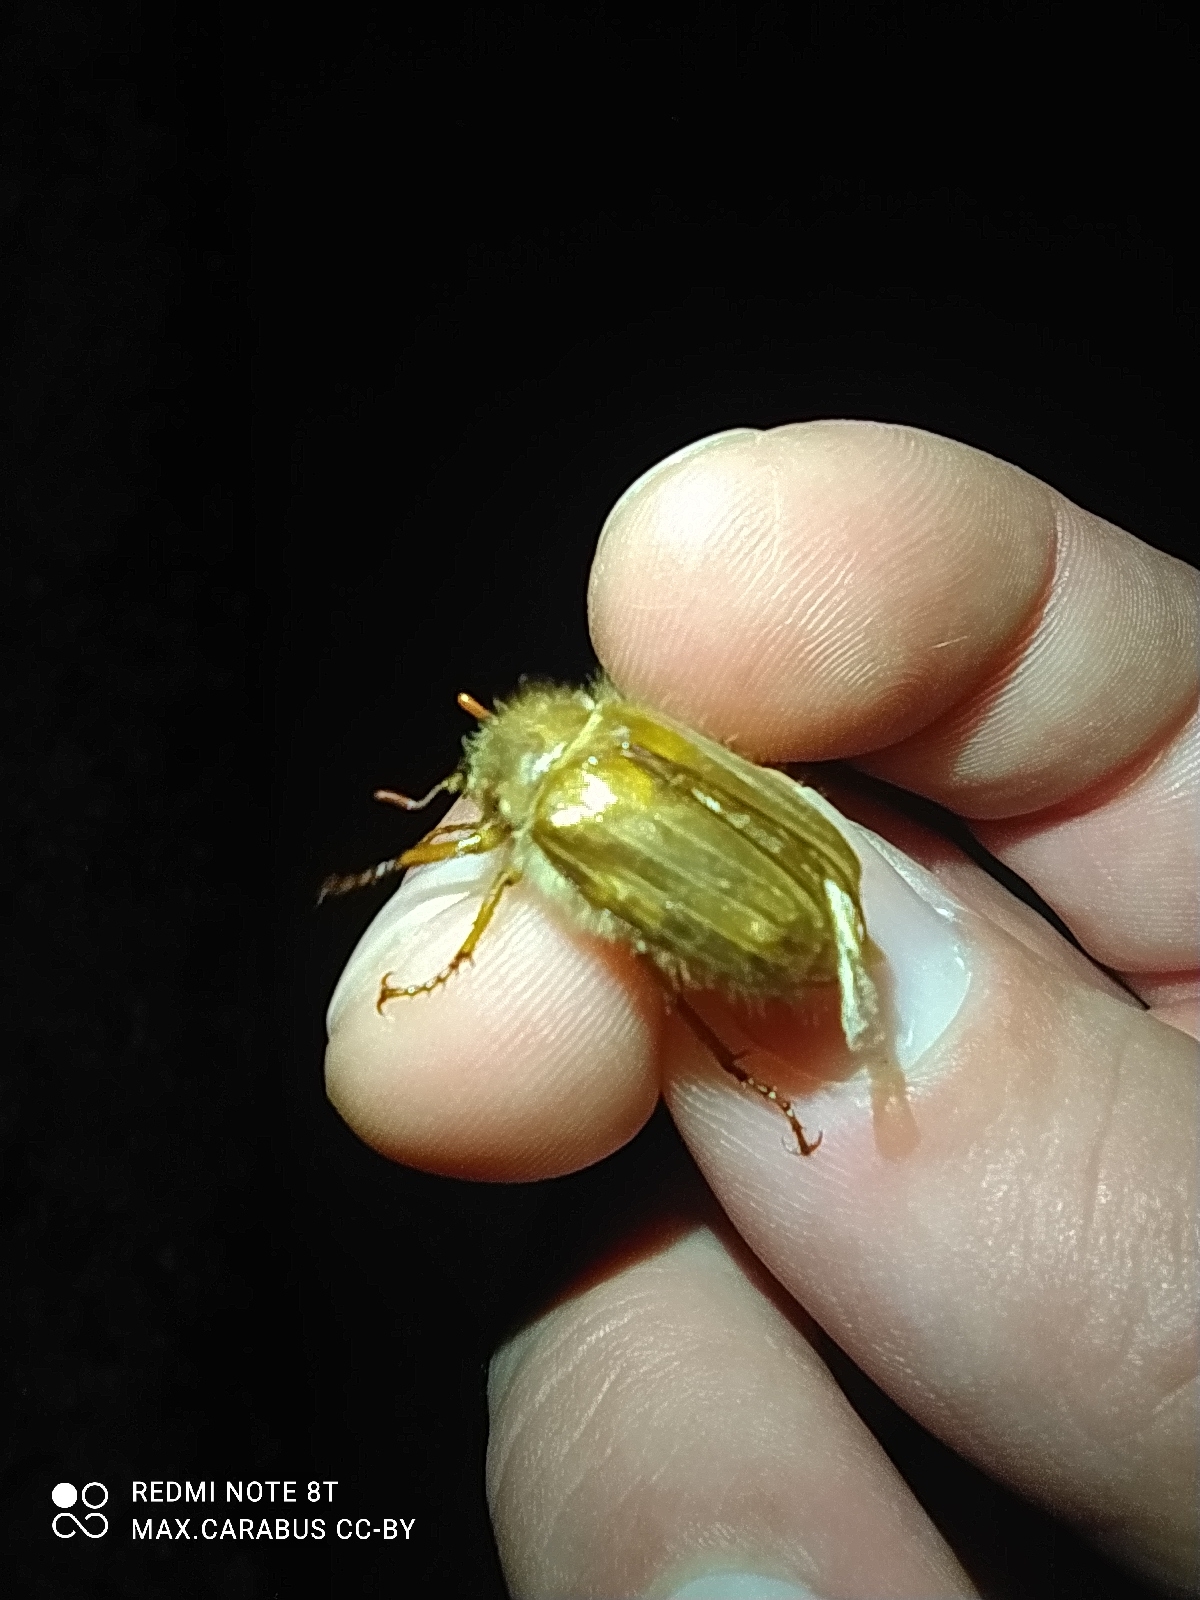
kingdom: Animalia
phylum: Arthropoda
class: Insecta
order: Coleoptera
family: Scarabaeidae
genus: Amphimallon
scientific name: Amphimallon solstitiale
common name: Summer chafer
